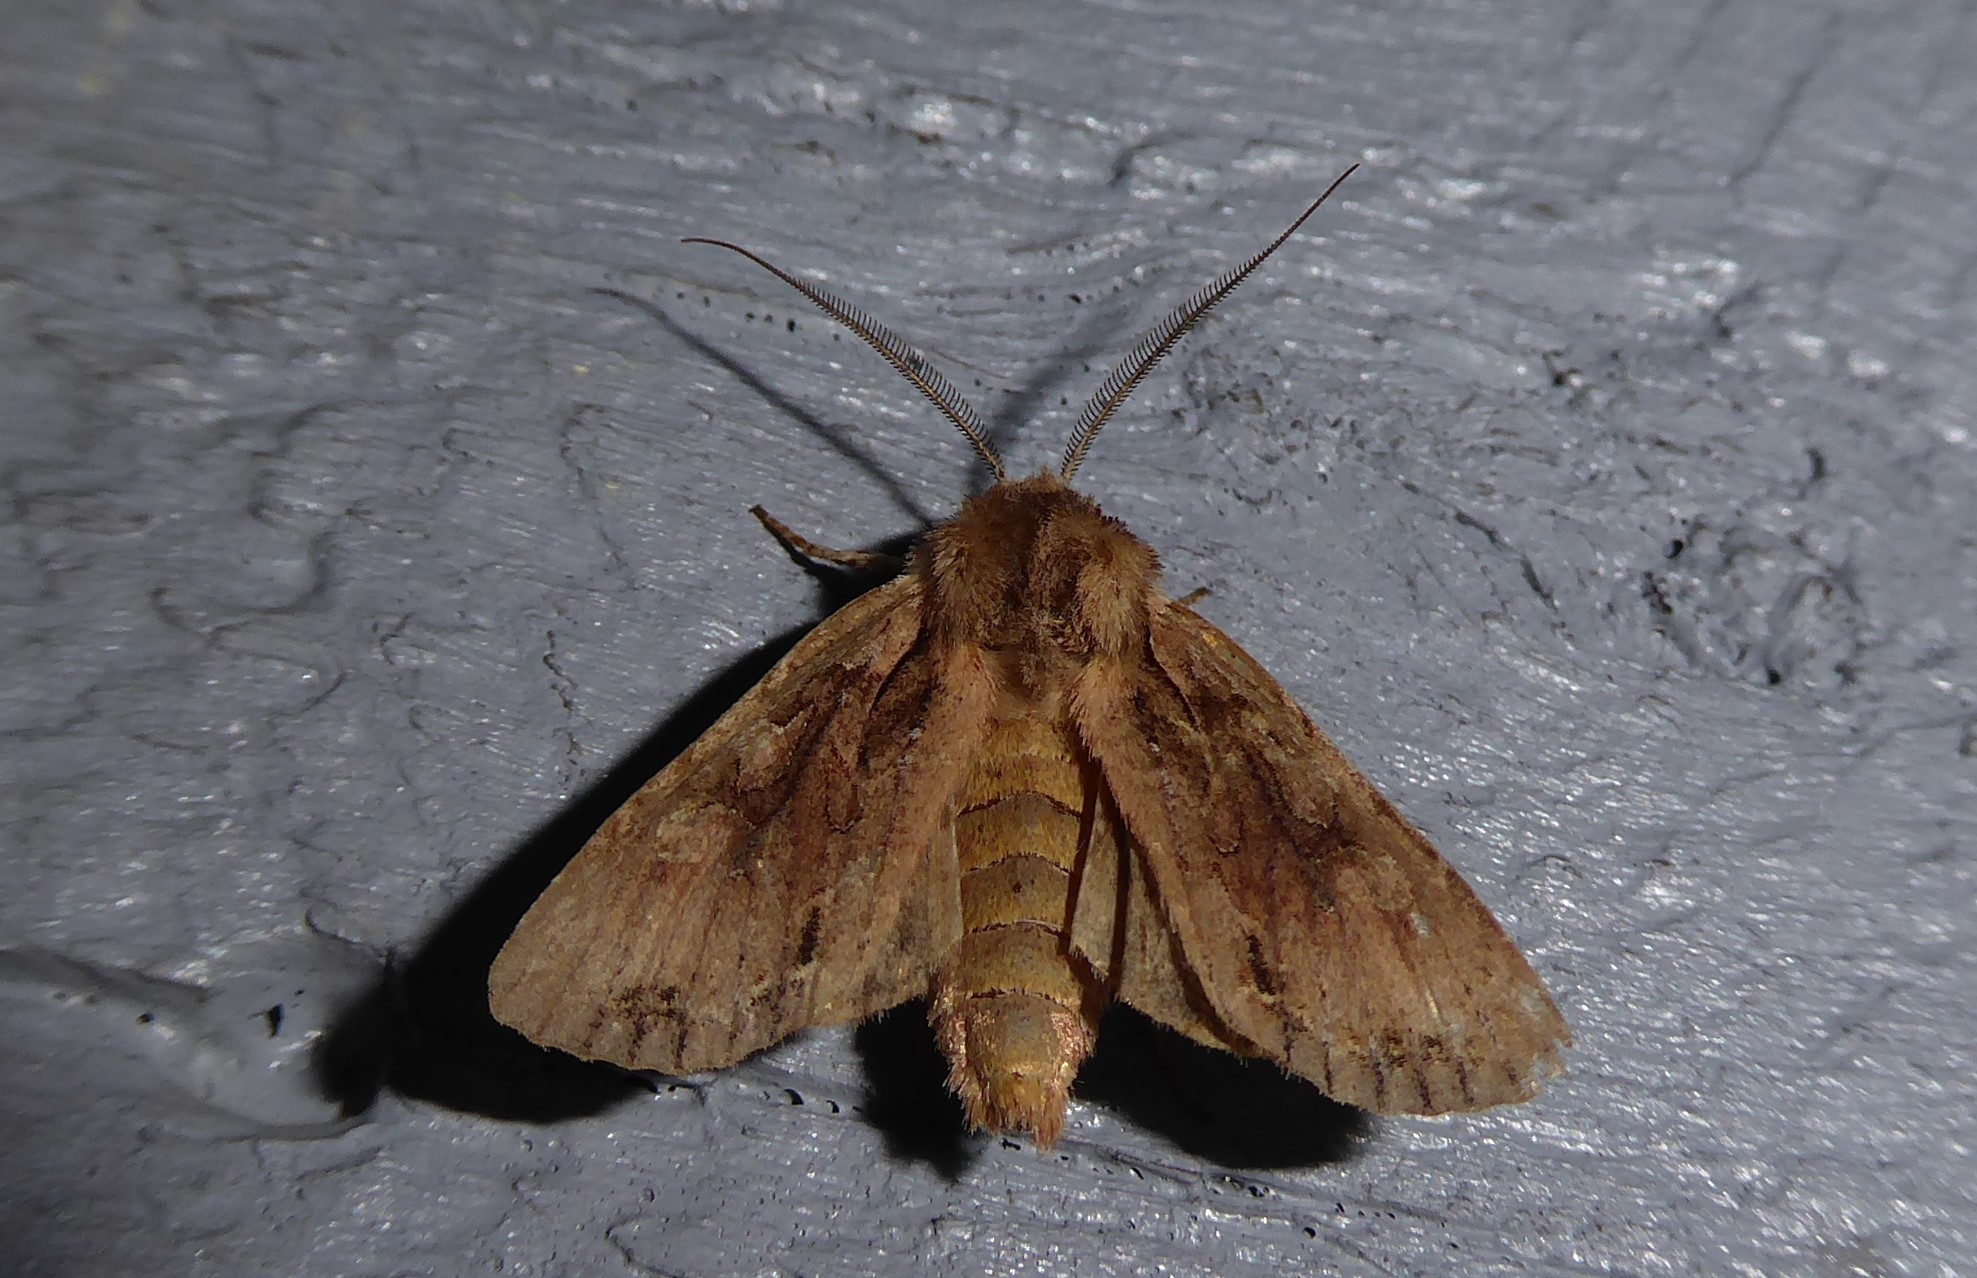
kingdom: Animalia
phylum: Arthropoda
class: Insecta
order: Lepidoptera
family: Noctuidae
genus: Ichneutica
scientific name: Ichneutica
